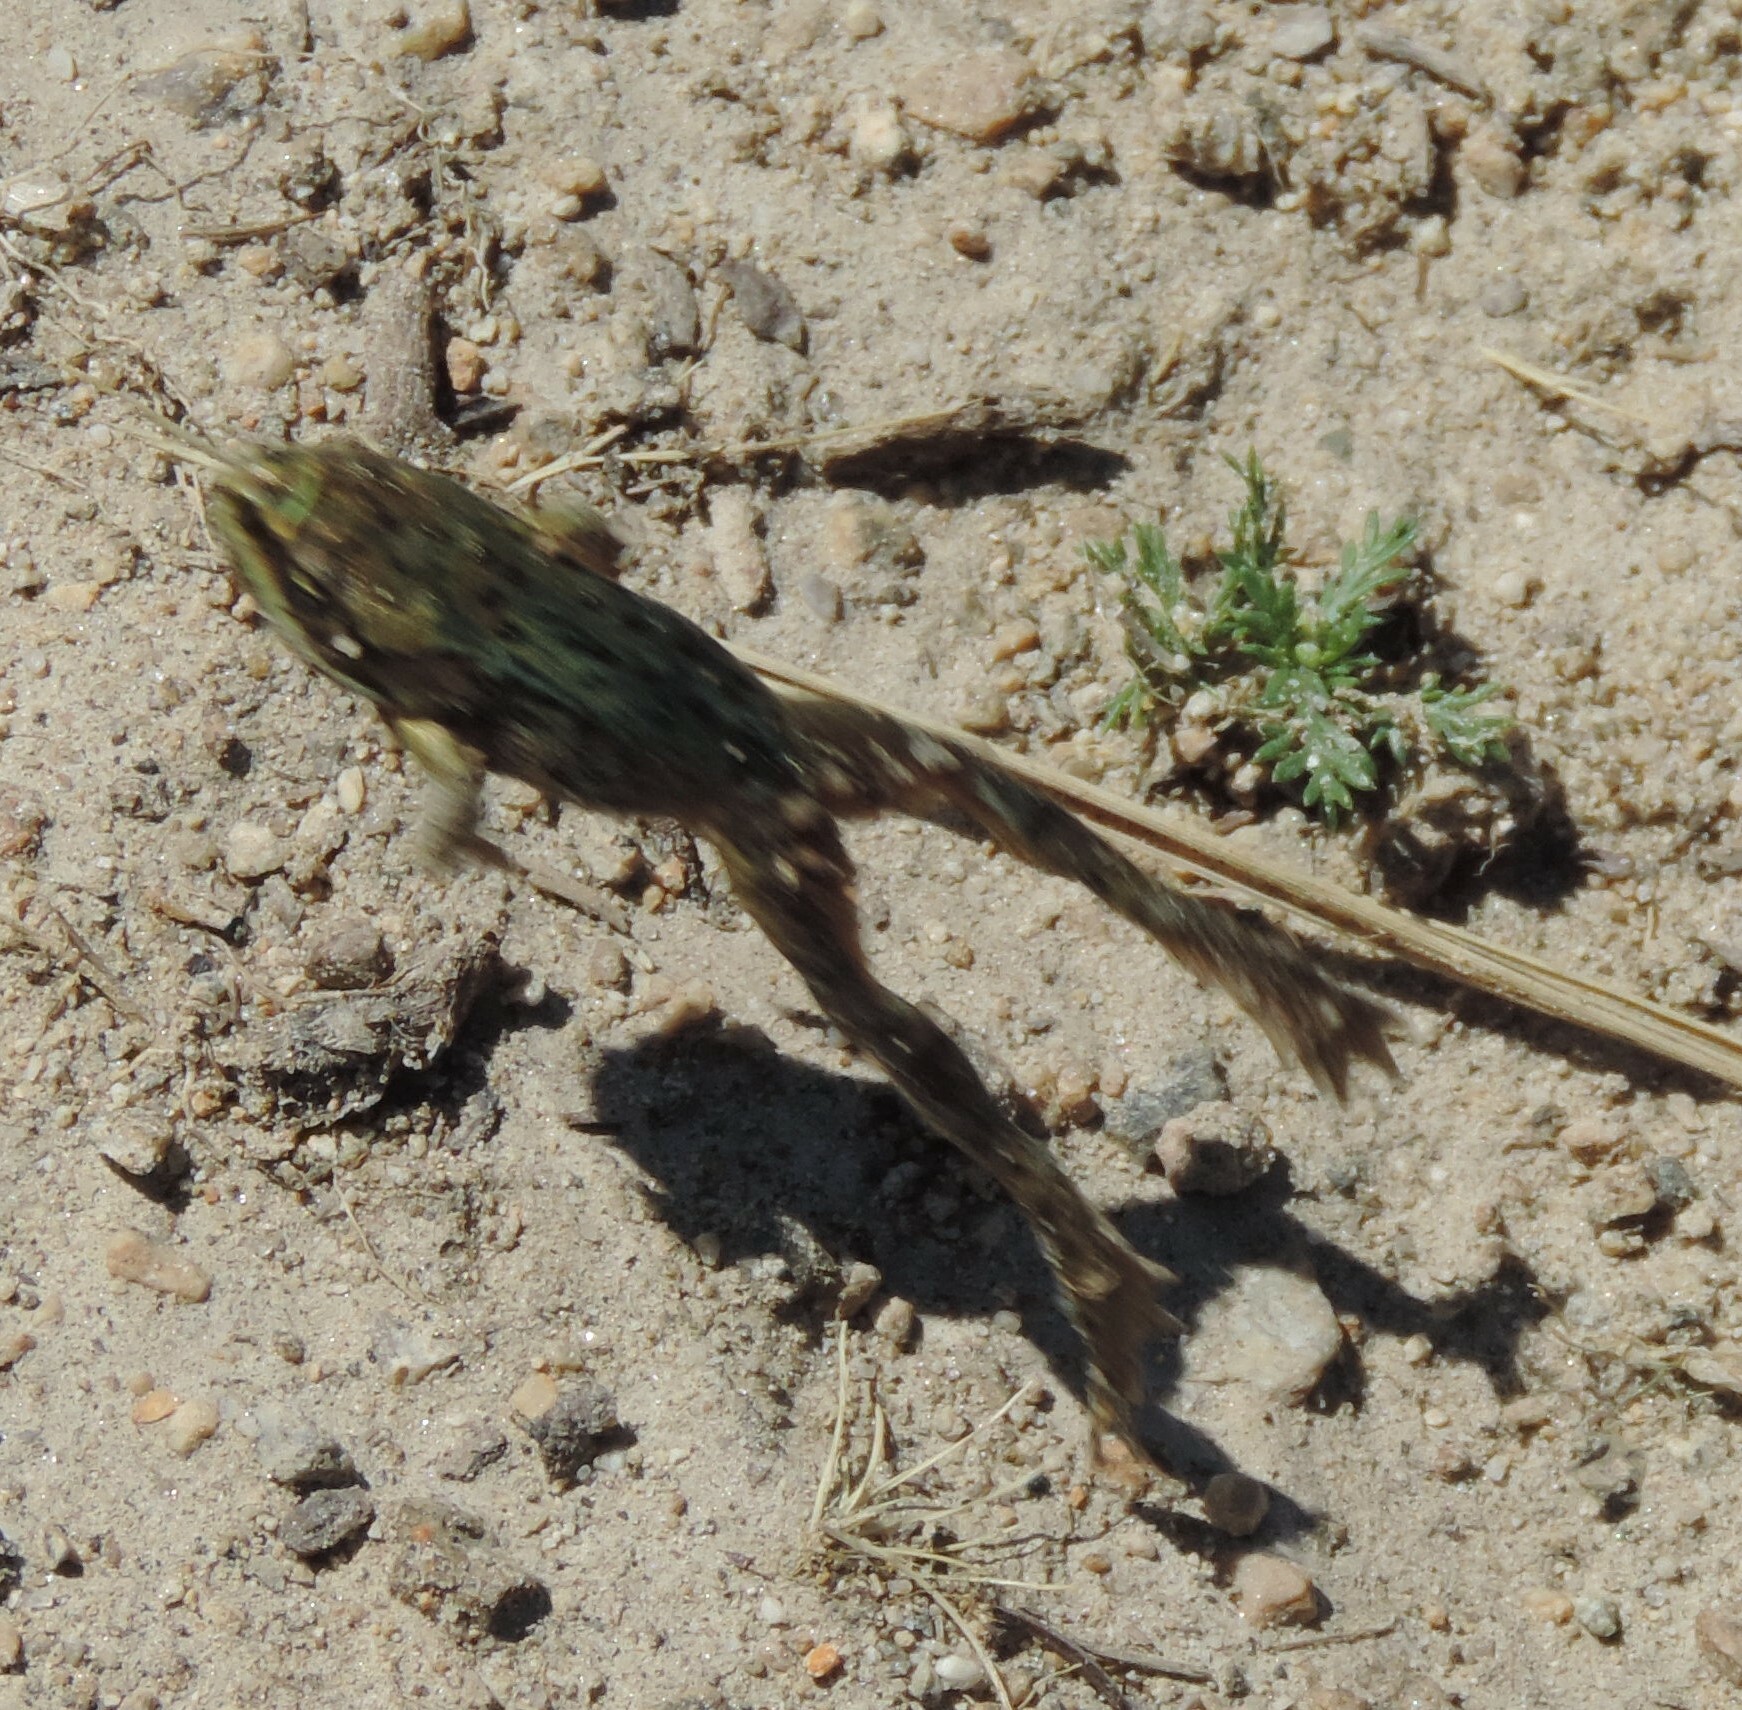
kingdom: Animalia
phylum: Chordata
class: Amphibia
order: Anura
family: Ranidae
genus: Rana
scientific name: Rana luteiventris
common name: Columbia spotted frog
